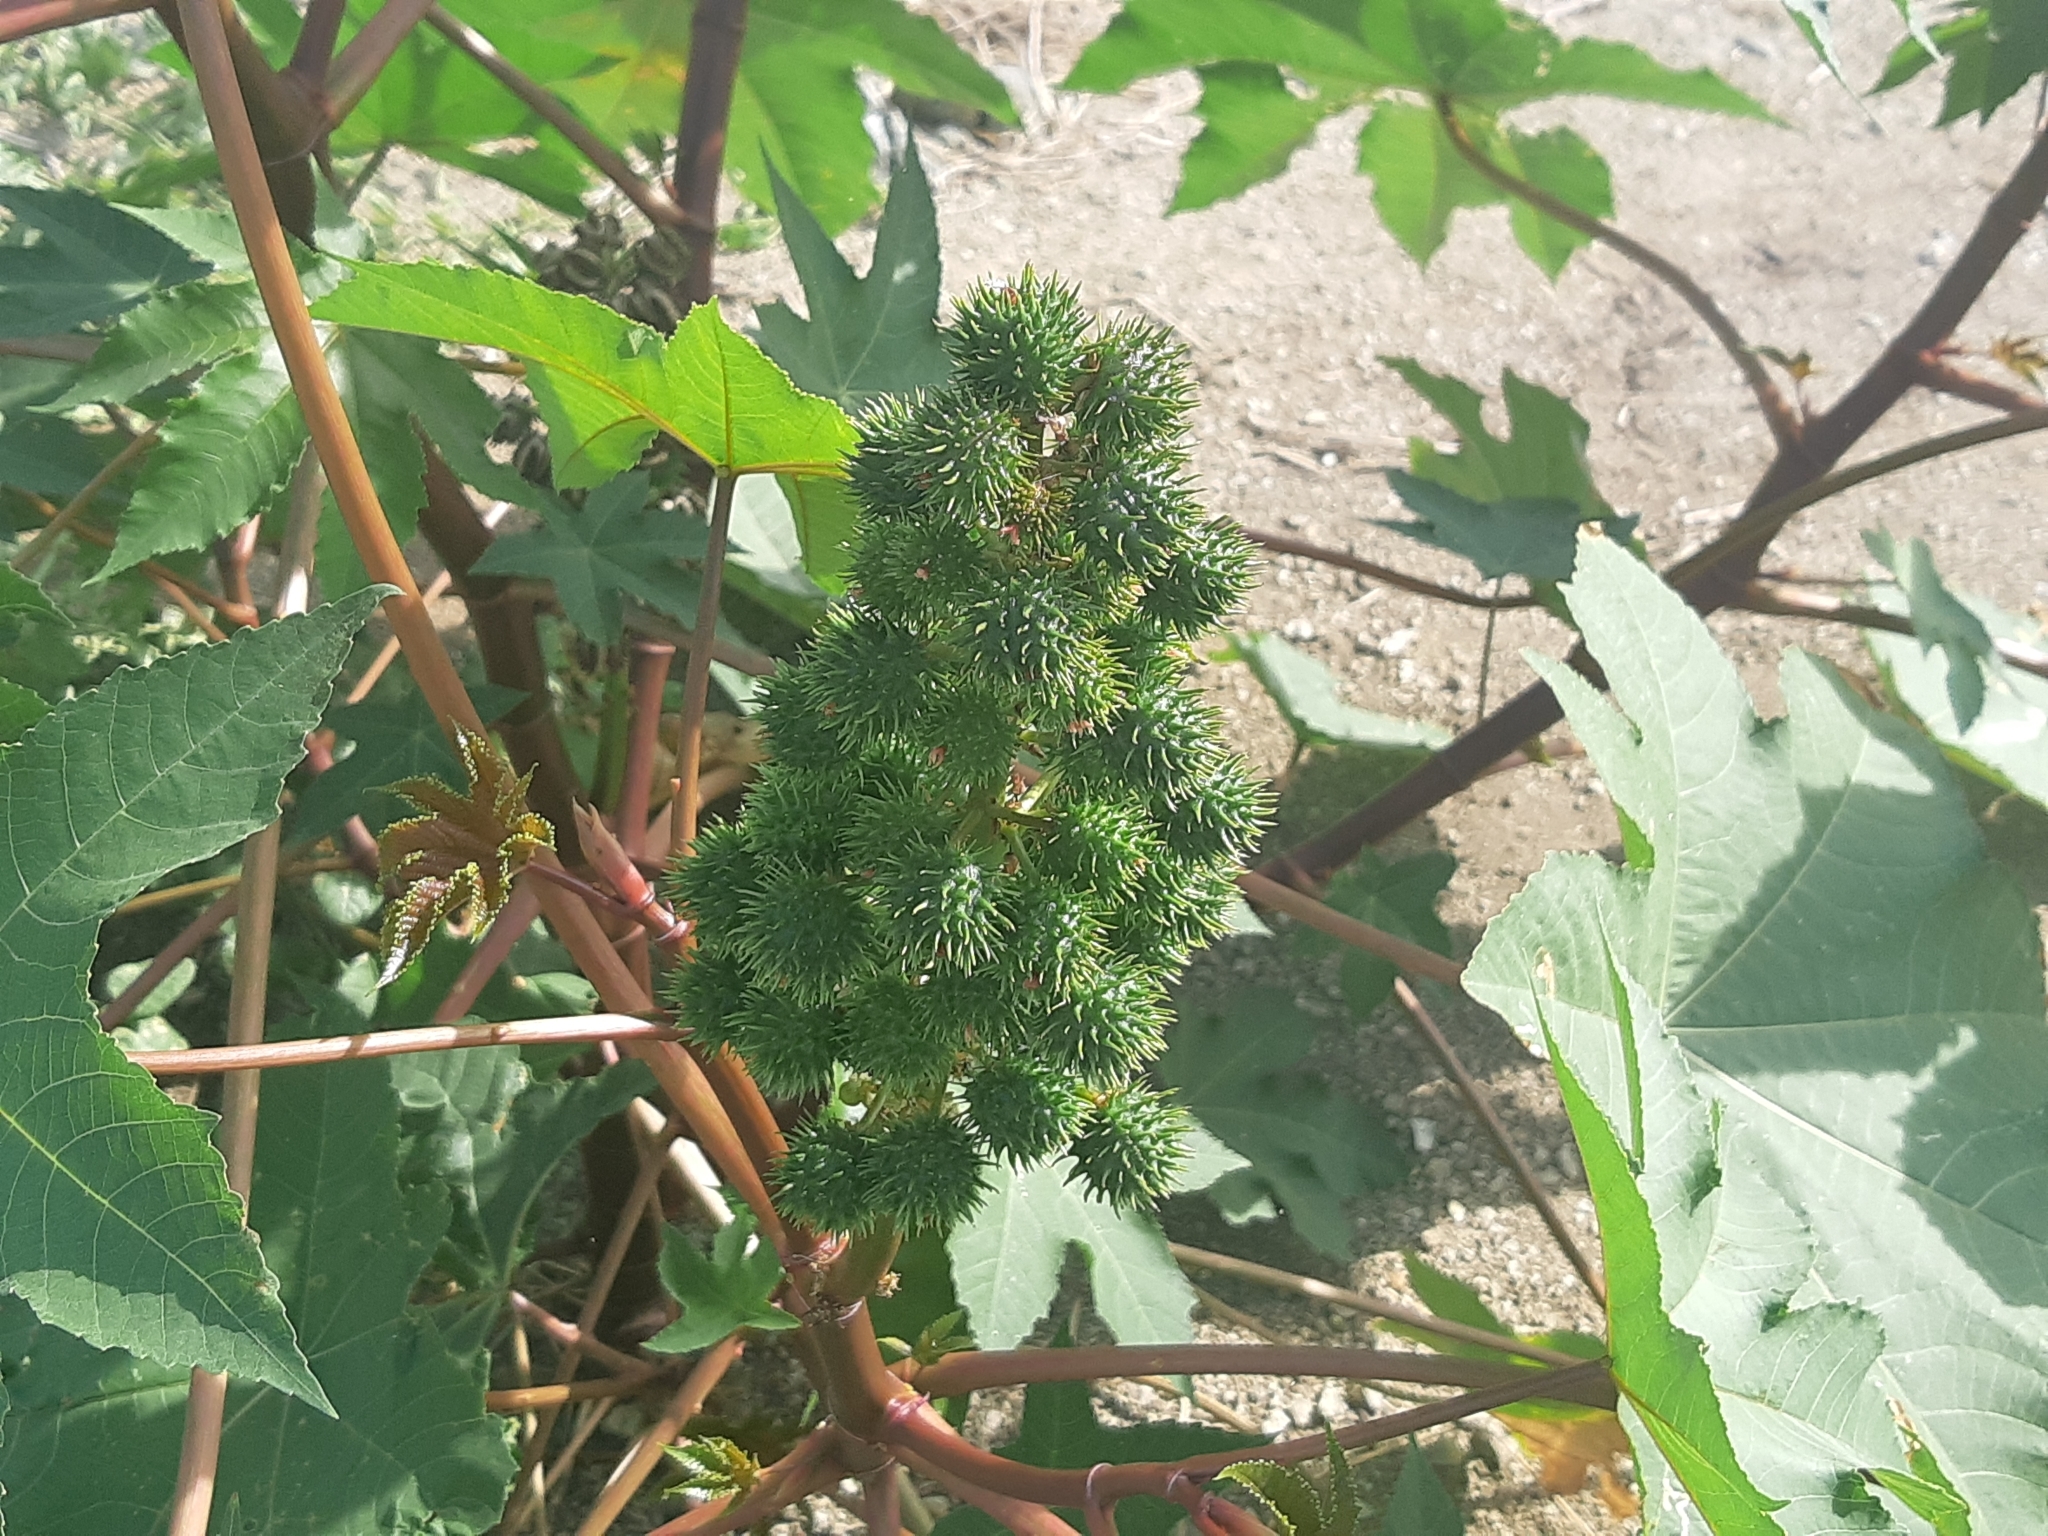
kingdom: Plantae
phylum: Tracheophyta
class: Magnoliopsida
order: Malpighiales
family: Euphorbiaceae
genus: Ricinus
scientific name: Ricinus communis
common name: Castor-oil-plant
